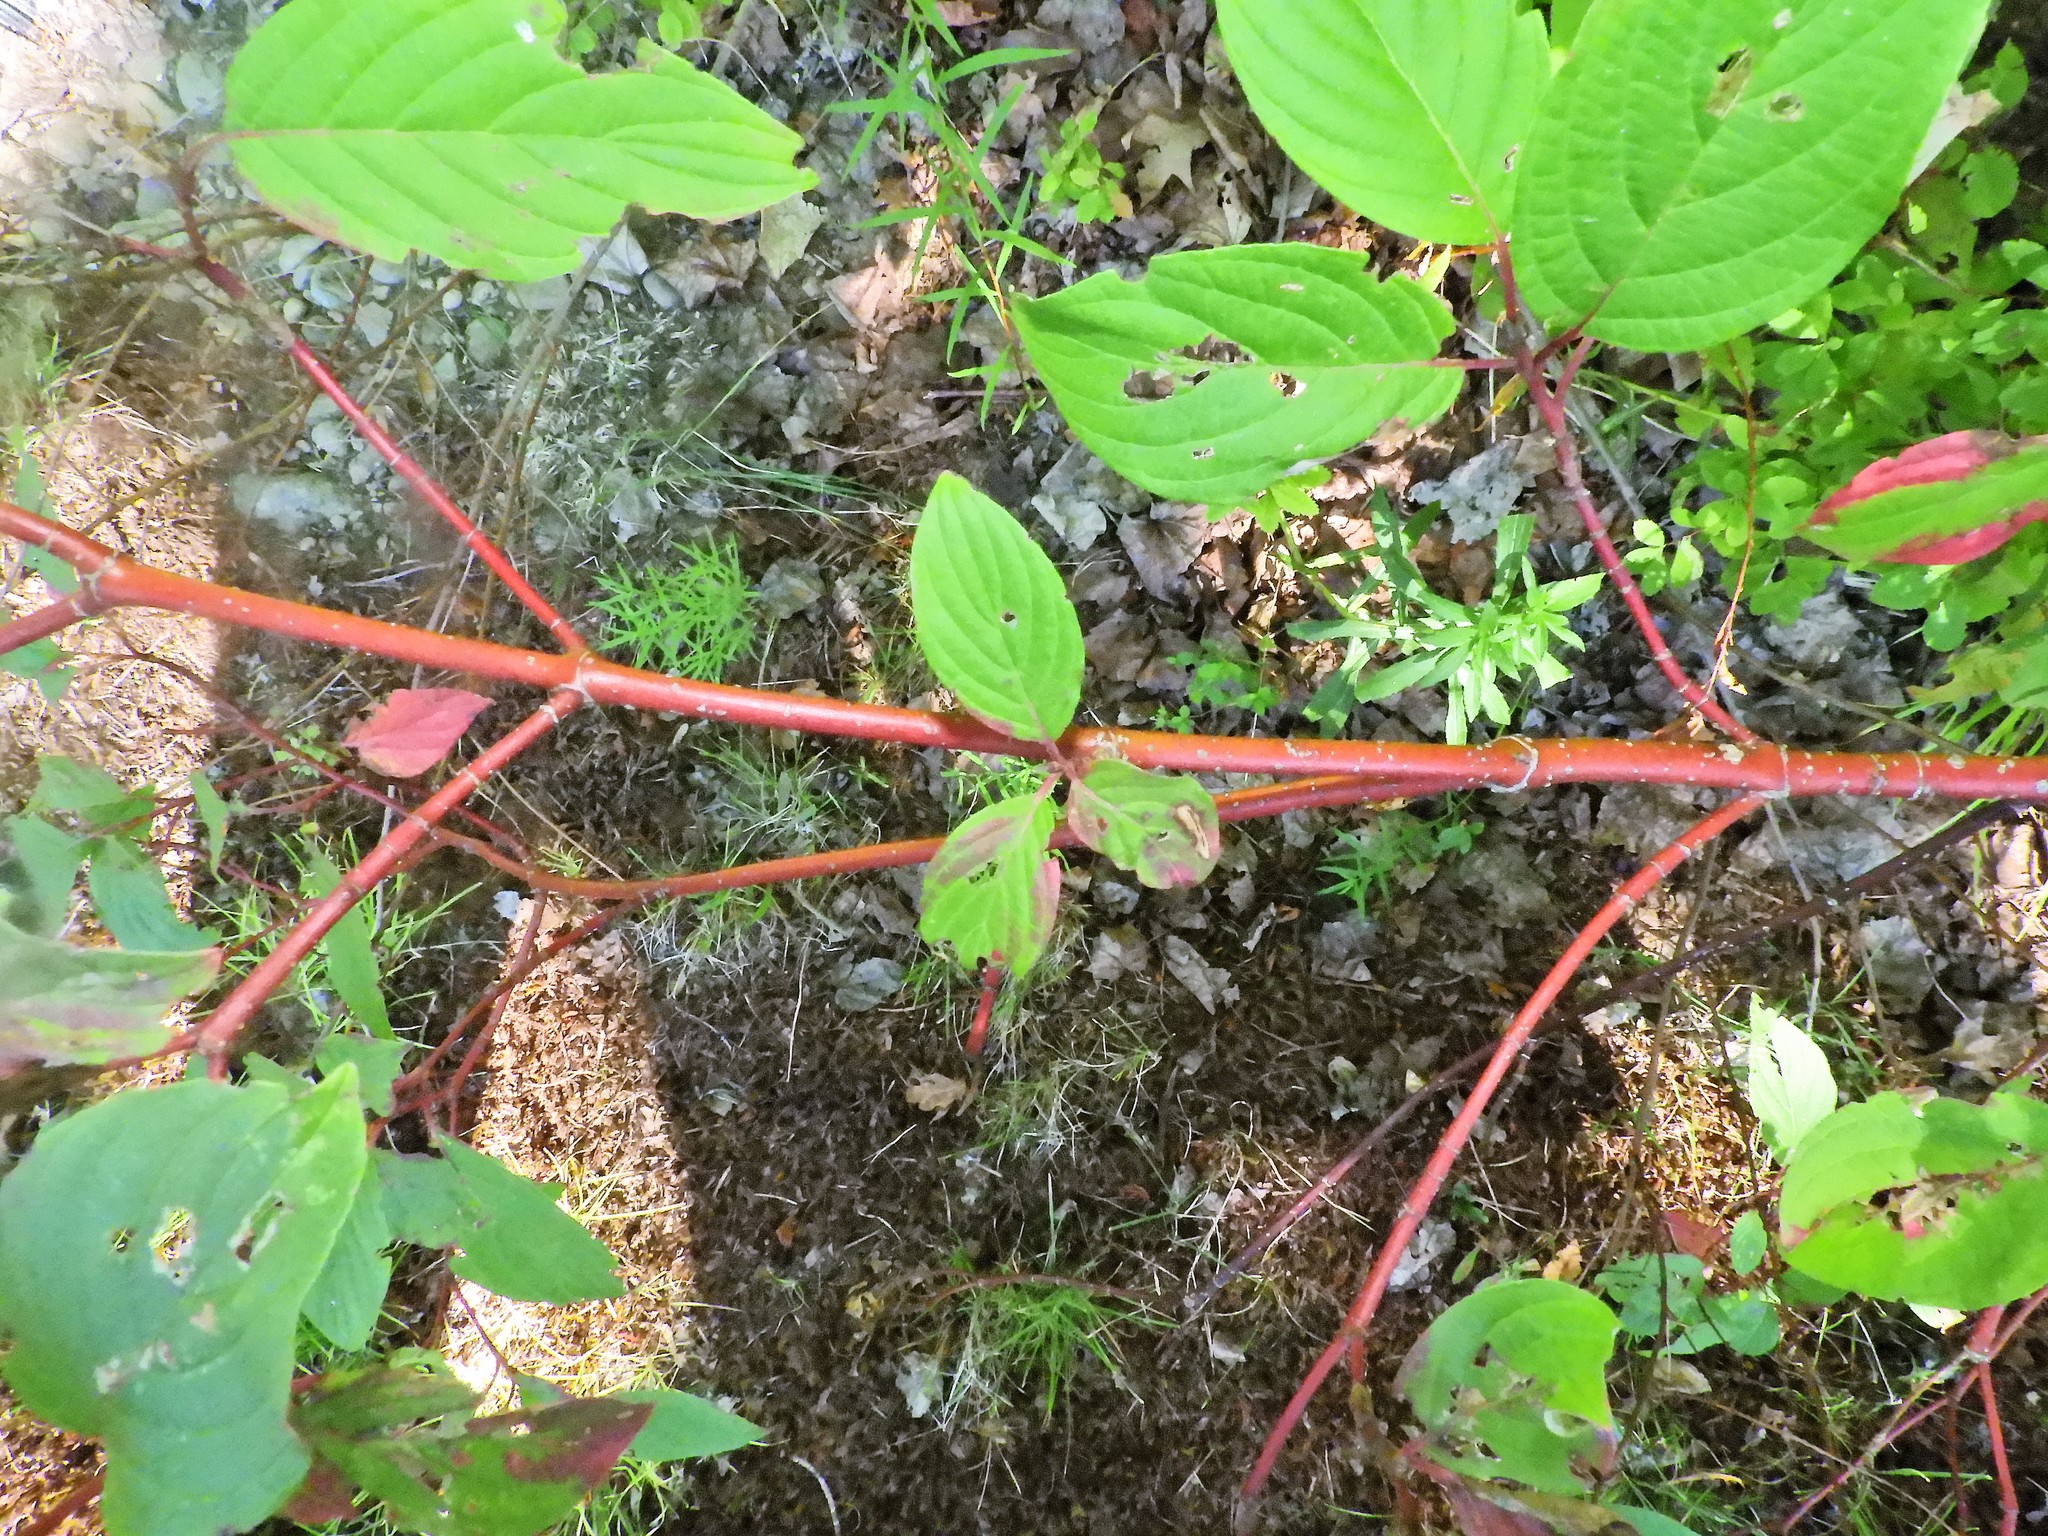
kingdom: Plantae
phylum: Tracheophyta
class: Magnoliopsida
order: Cornales
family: Cornaceae
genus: Cornus
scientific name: Cornus sericea
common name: Red-osier dogwood
